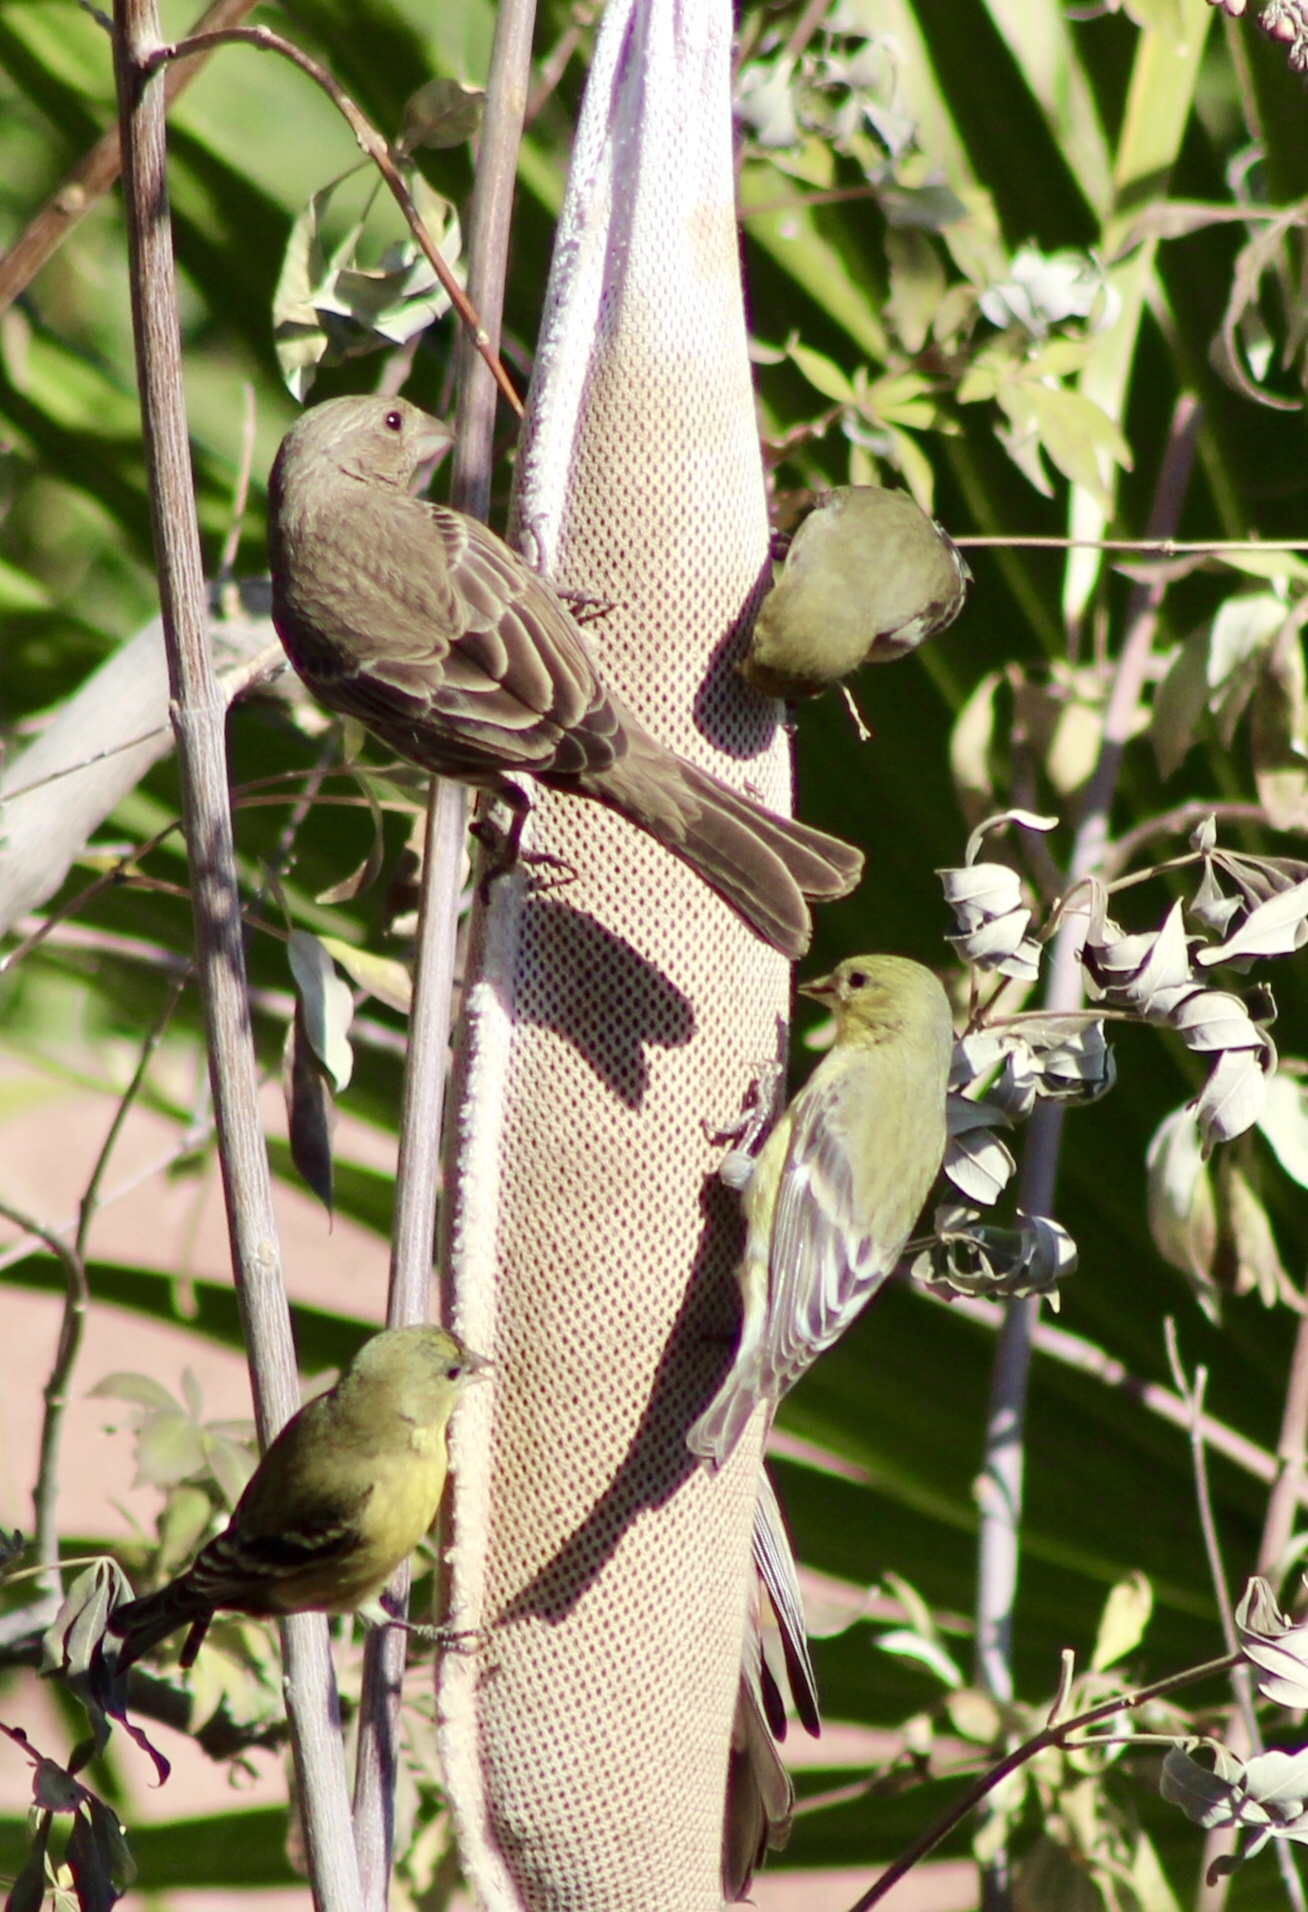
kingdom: Animalia
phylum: Chordata
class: Aves
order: Passeriformes
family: Fringillidae
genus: Haemorhous
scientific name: Haemorhous mexicanus
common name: House finch
